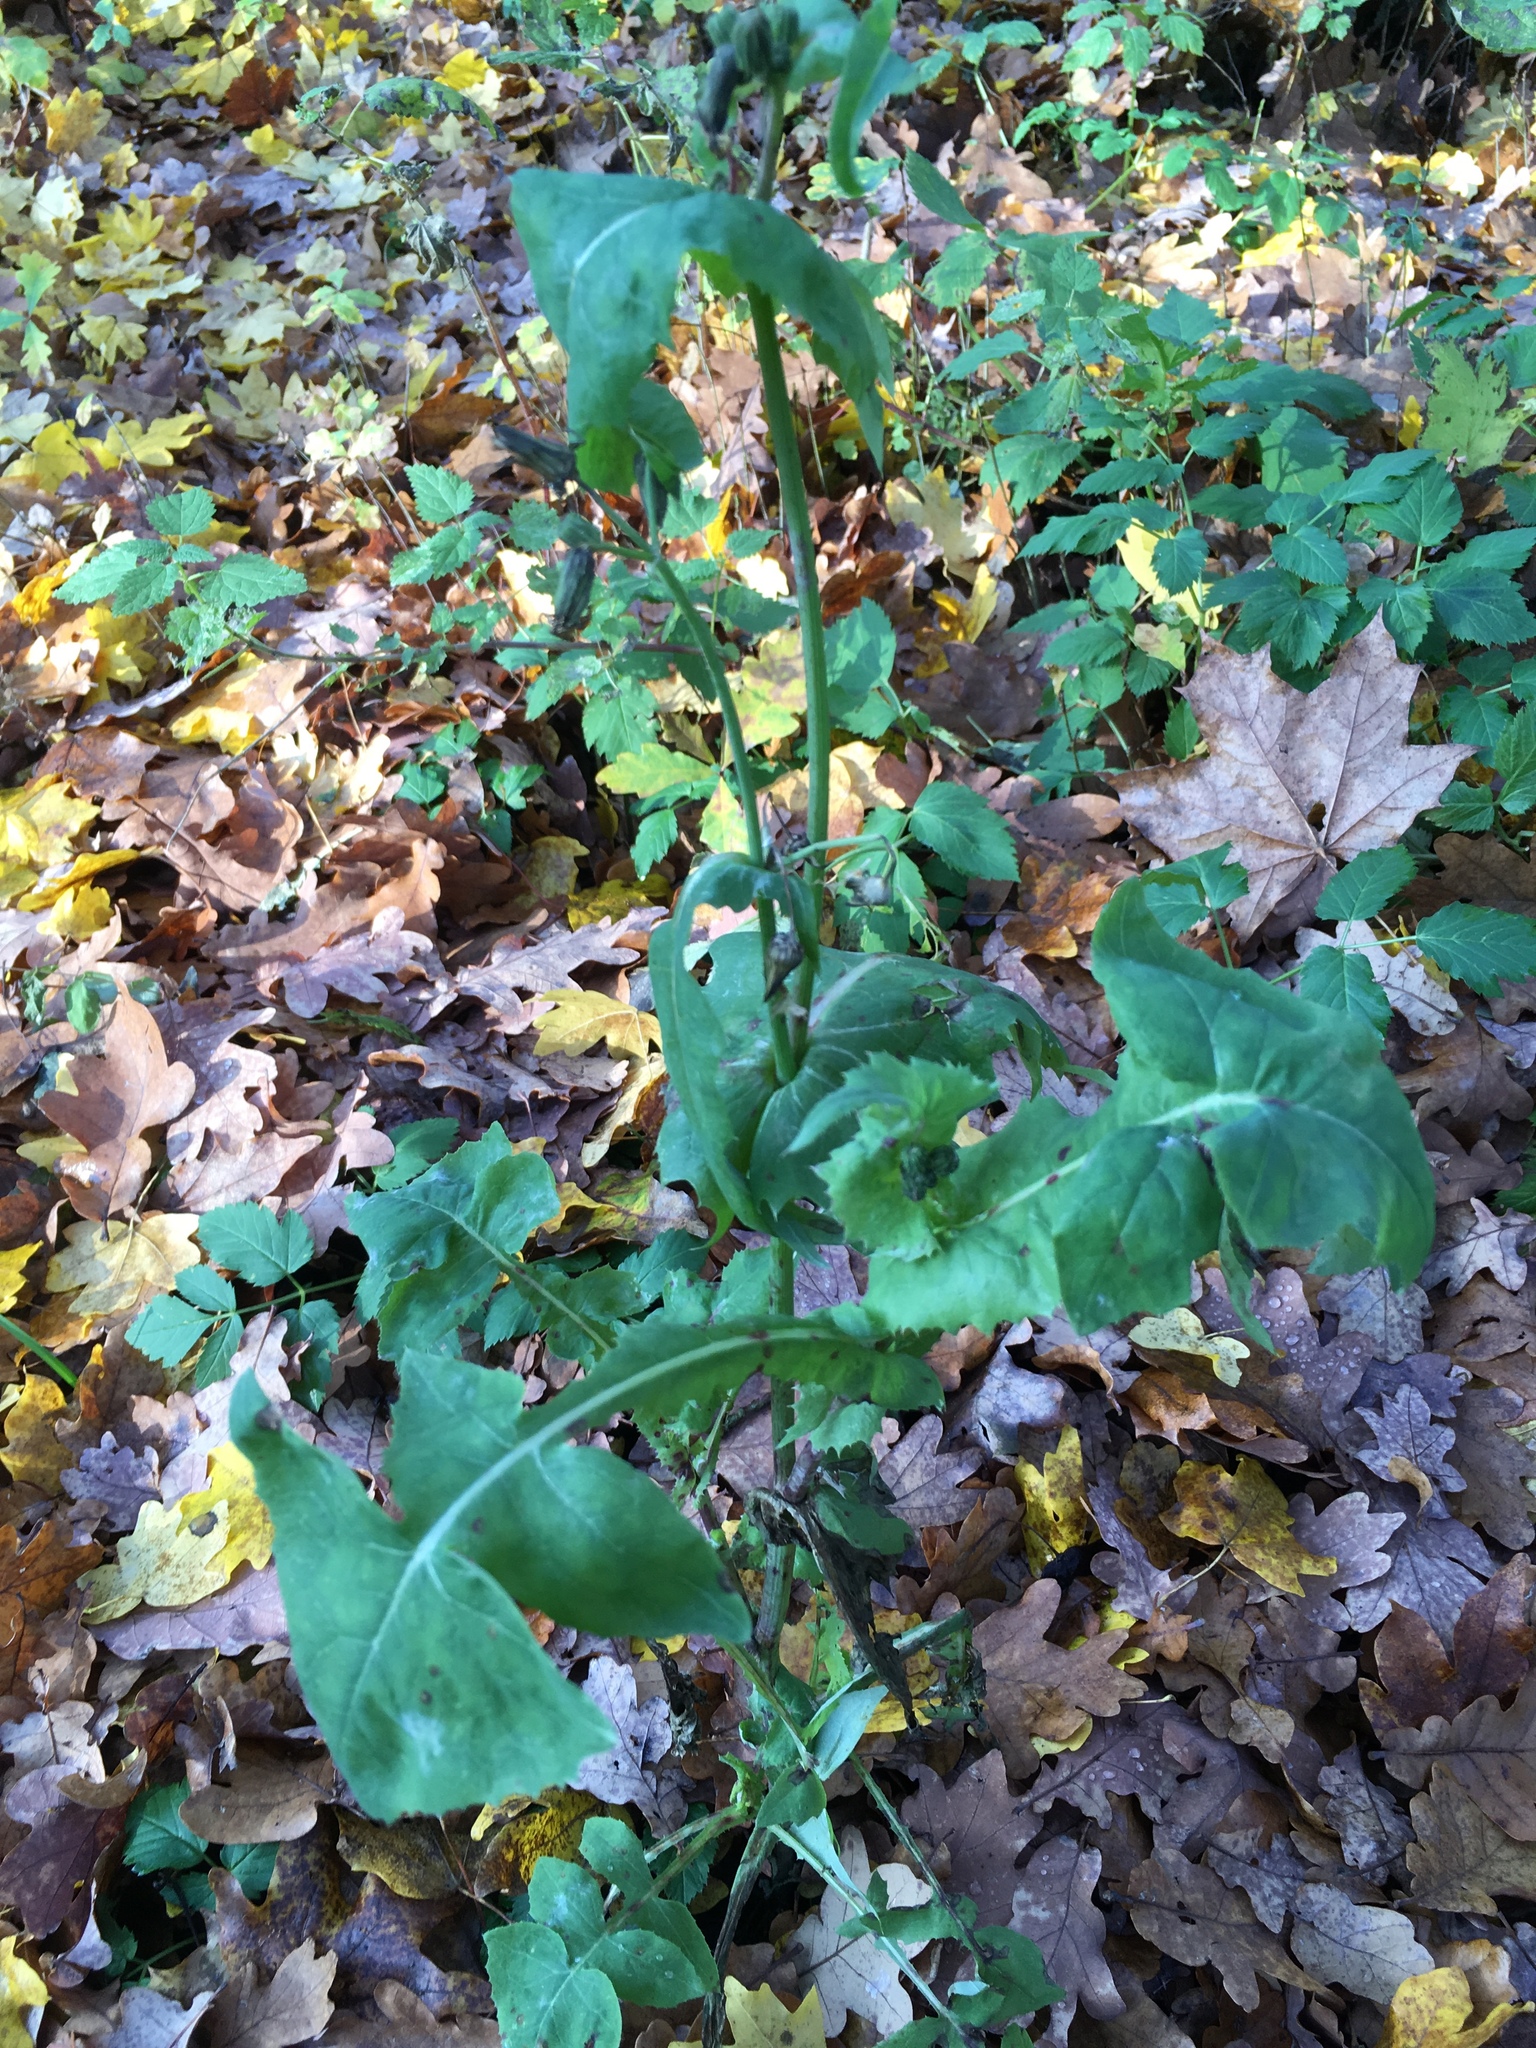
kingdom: Plantae
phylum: Tracheophyta
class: Magnoliopsida
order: Asterales
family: Asteraceae
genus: Sonchus
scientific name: Sonchus oleraceus
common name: Common sowthistle
